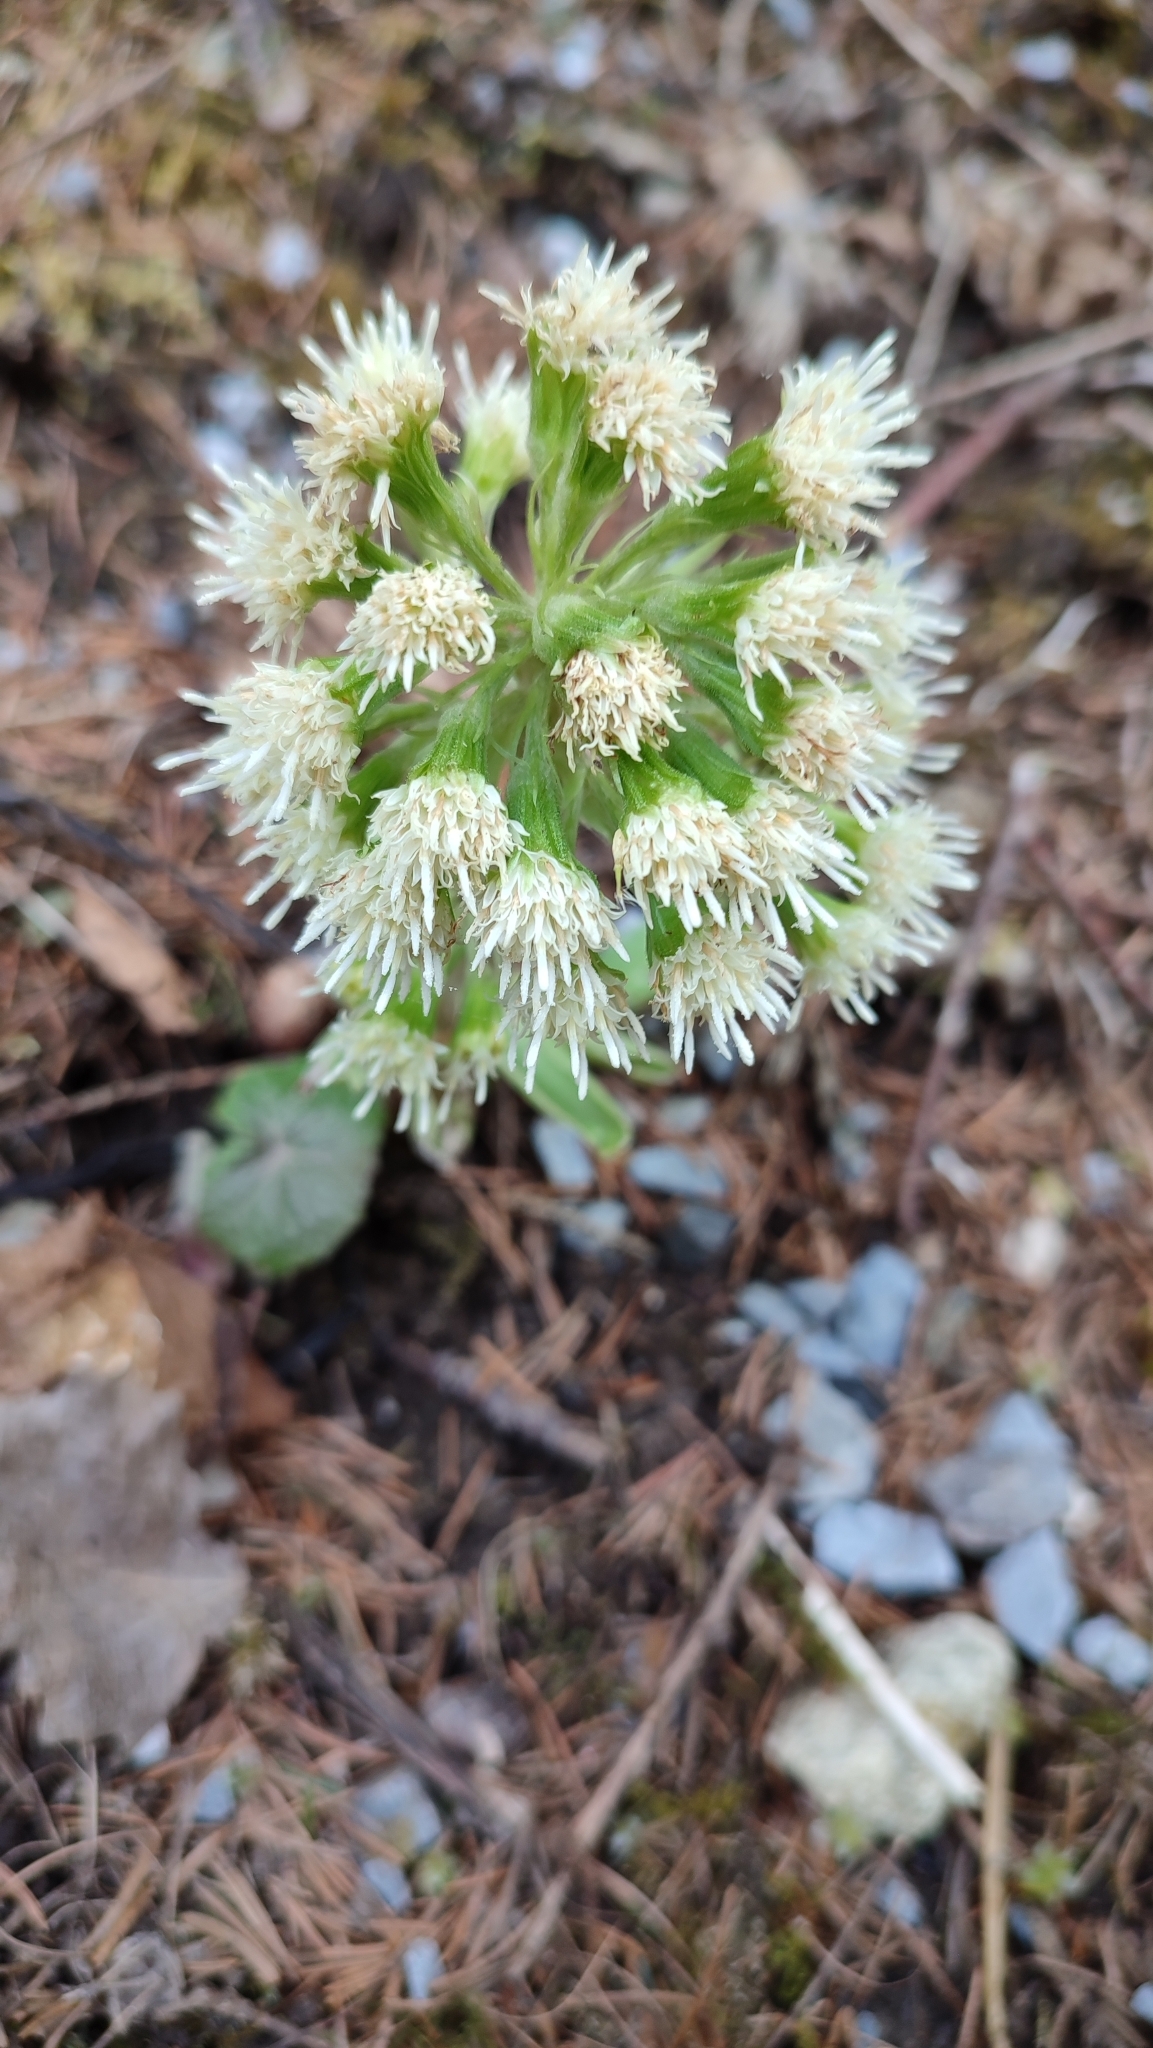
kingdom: Plantae
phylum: Tracheophyta
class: Magnoliopsida
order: Asterales
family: Asteraceae
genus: Petasites
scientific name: Petasites albus
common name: White butterbur
